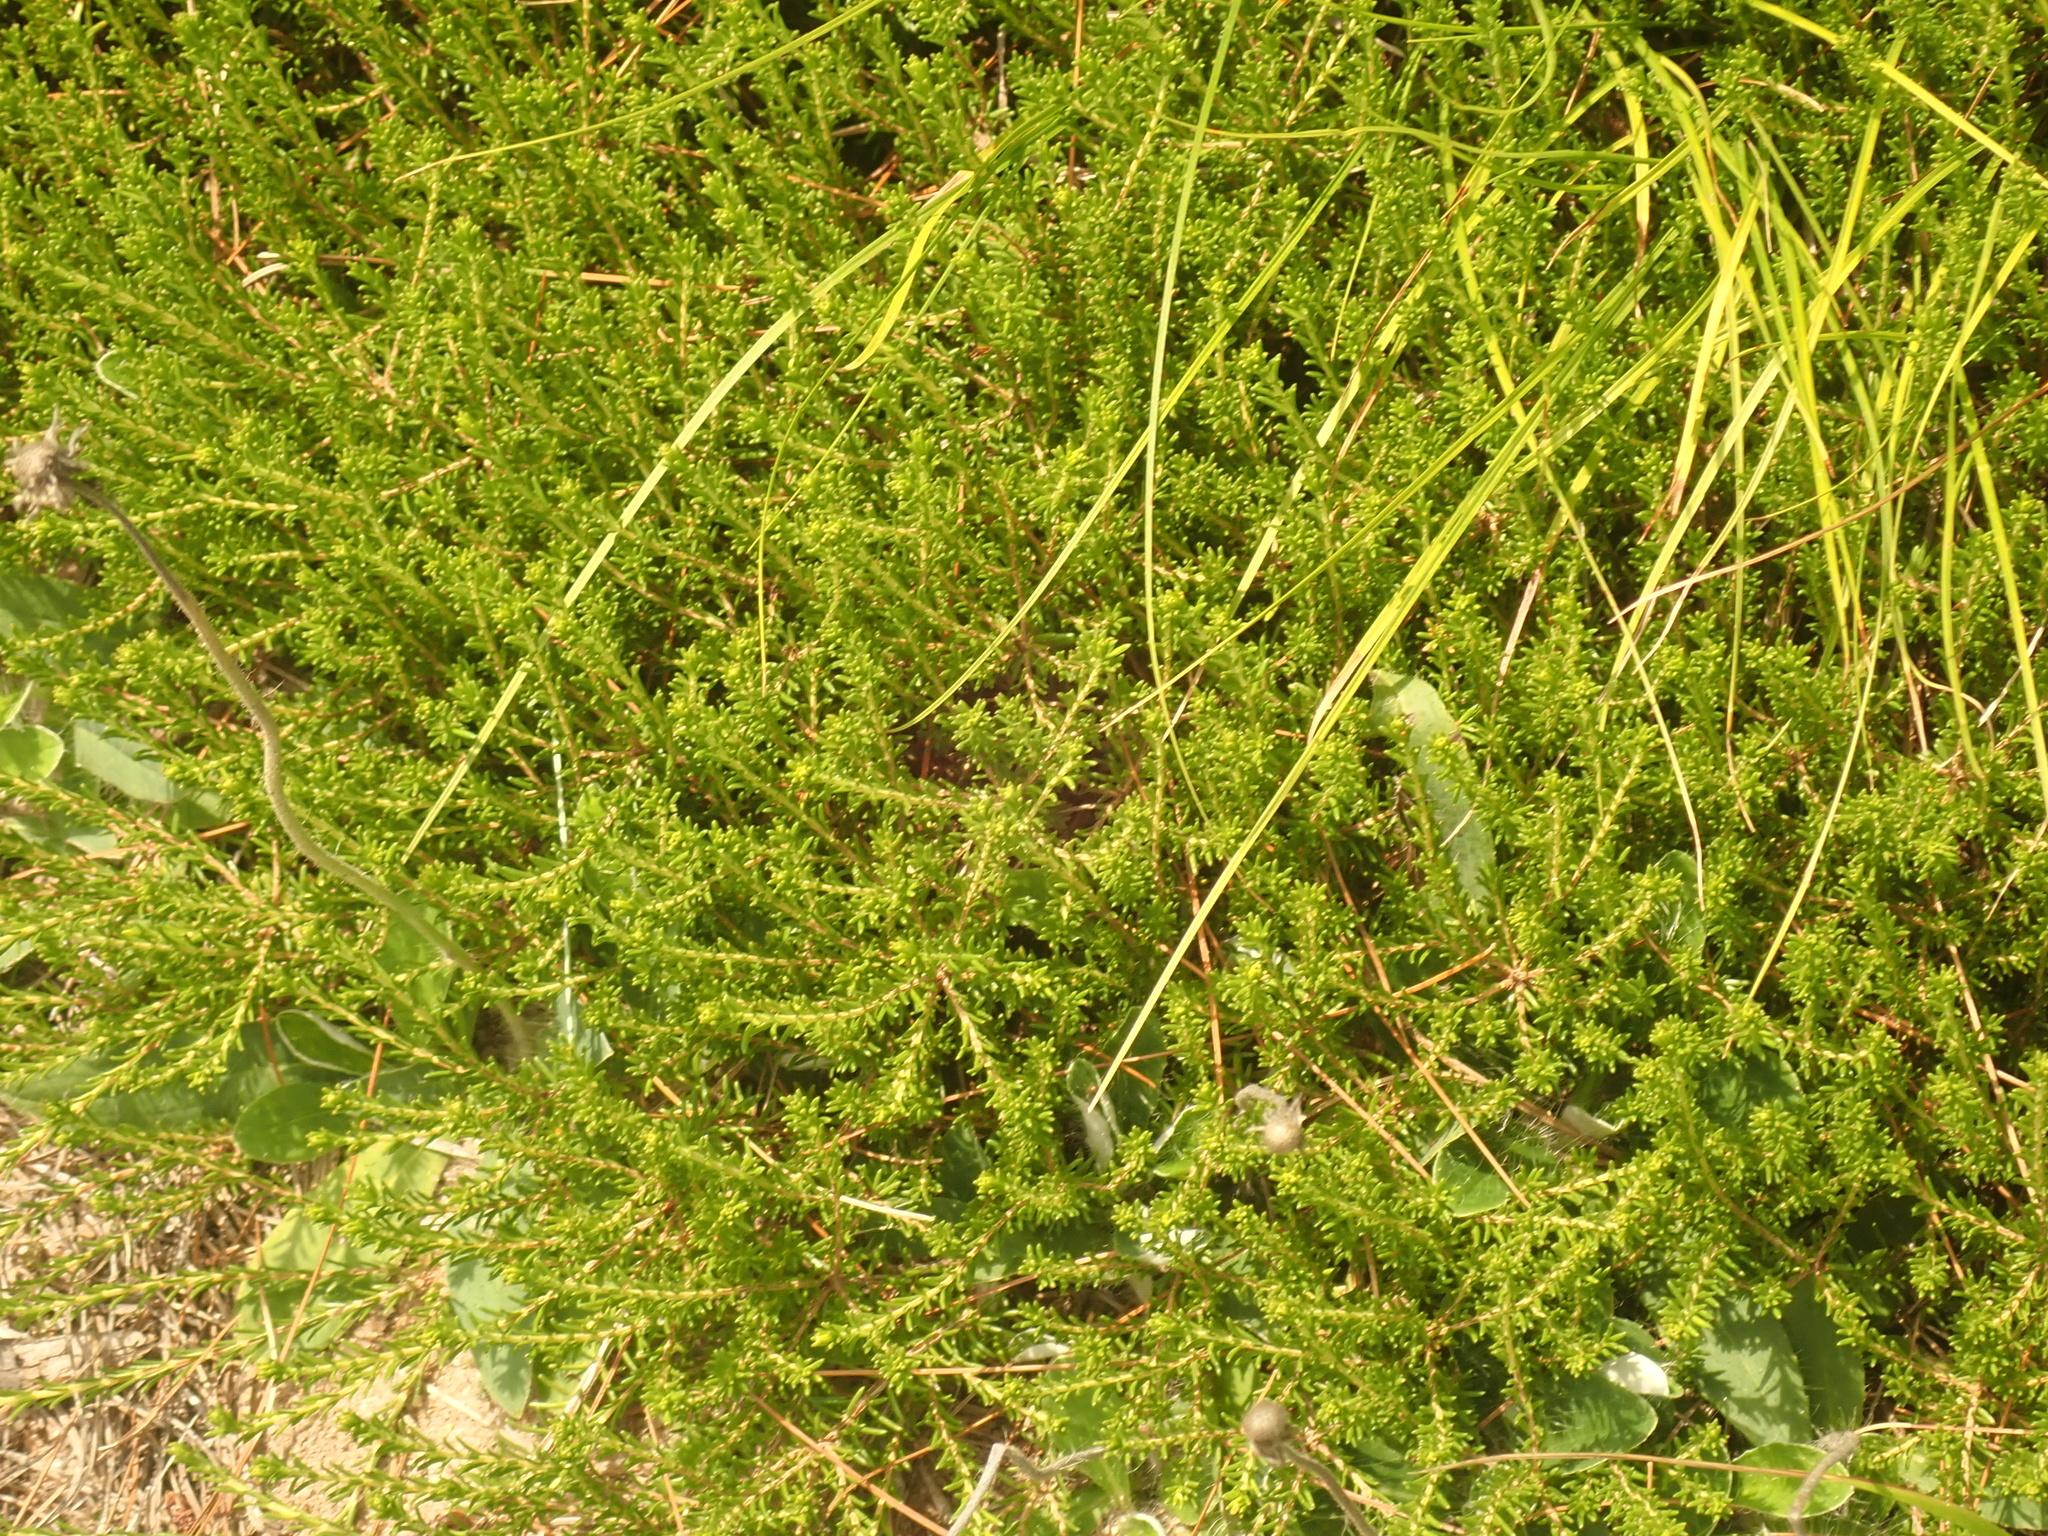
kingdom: Plantae
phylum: Tracheophyta
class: Magnoliopsida
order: Ericales
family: Ericaceae
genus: Corema
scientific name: Corema conradii
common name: Broom-crowberry
